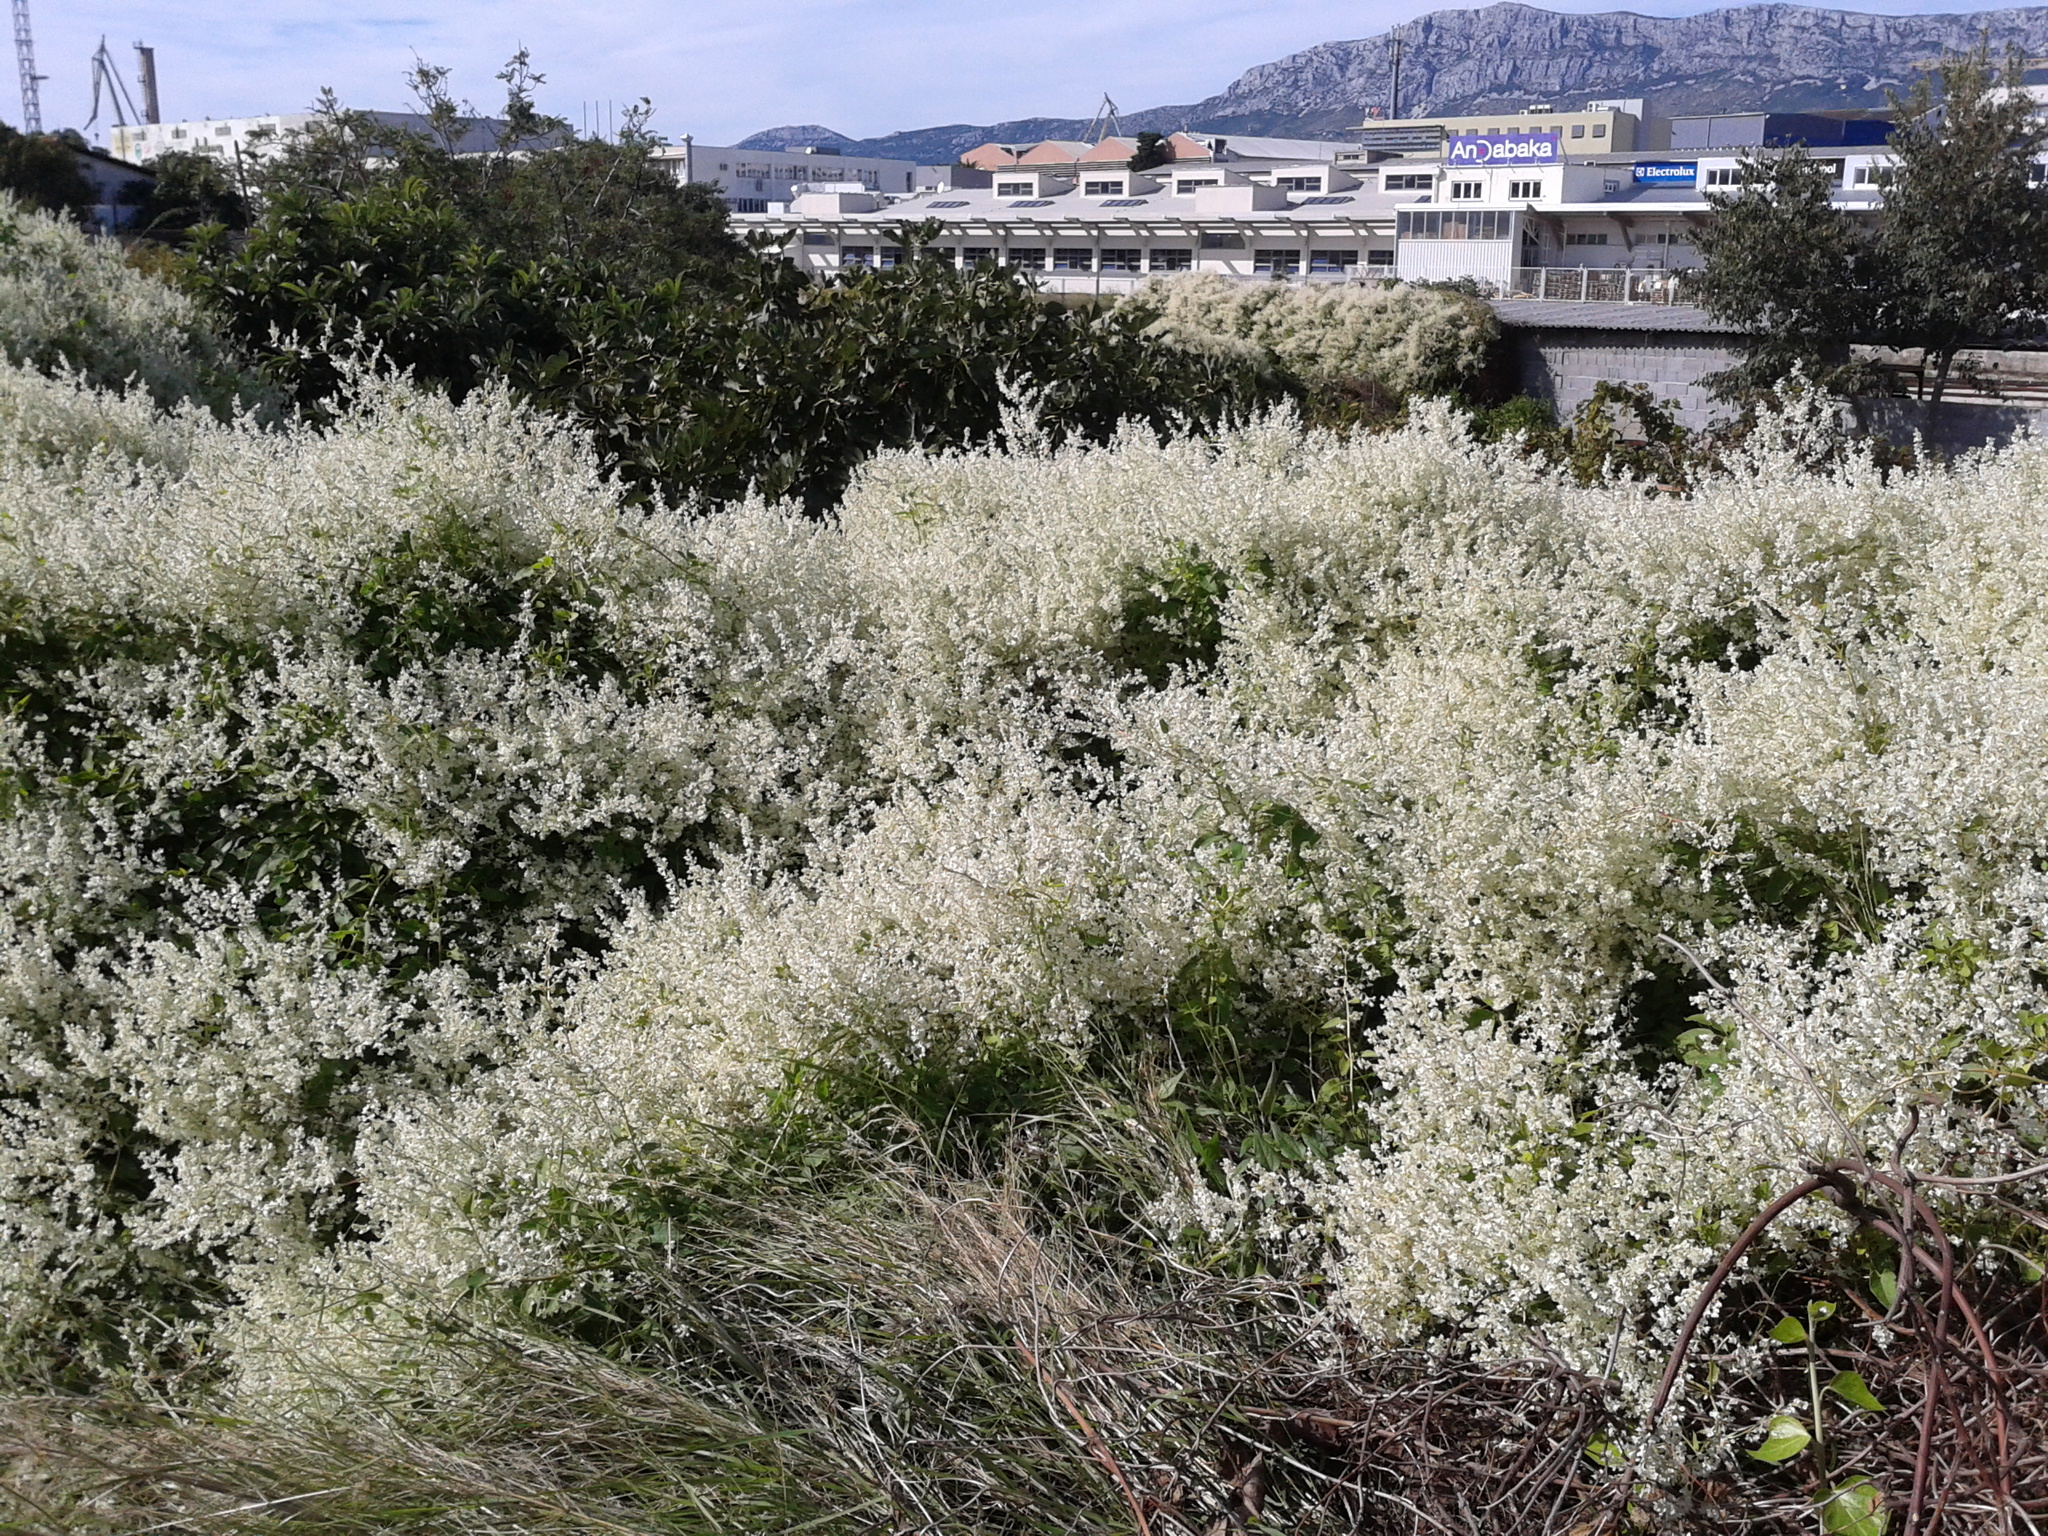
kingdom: Plantae
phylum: Tracheophyta
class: Magnoliopsida
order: Caryophyllales
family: Polygonaceae
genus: Fallopia
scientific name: Fallopia baldschuanica
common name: Russian-vine
